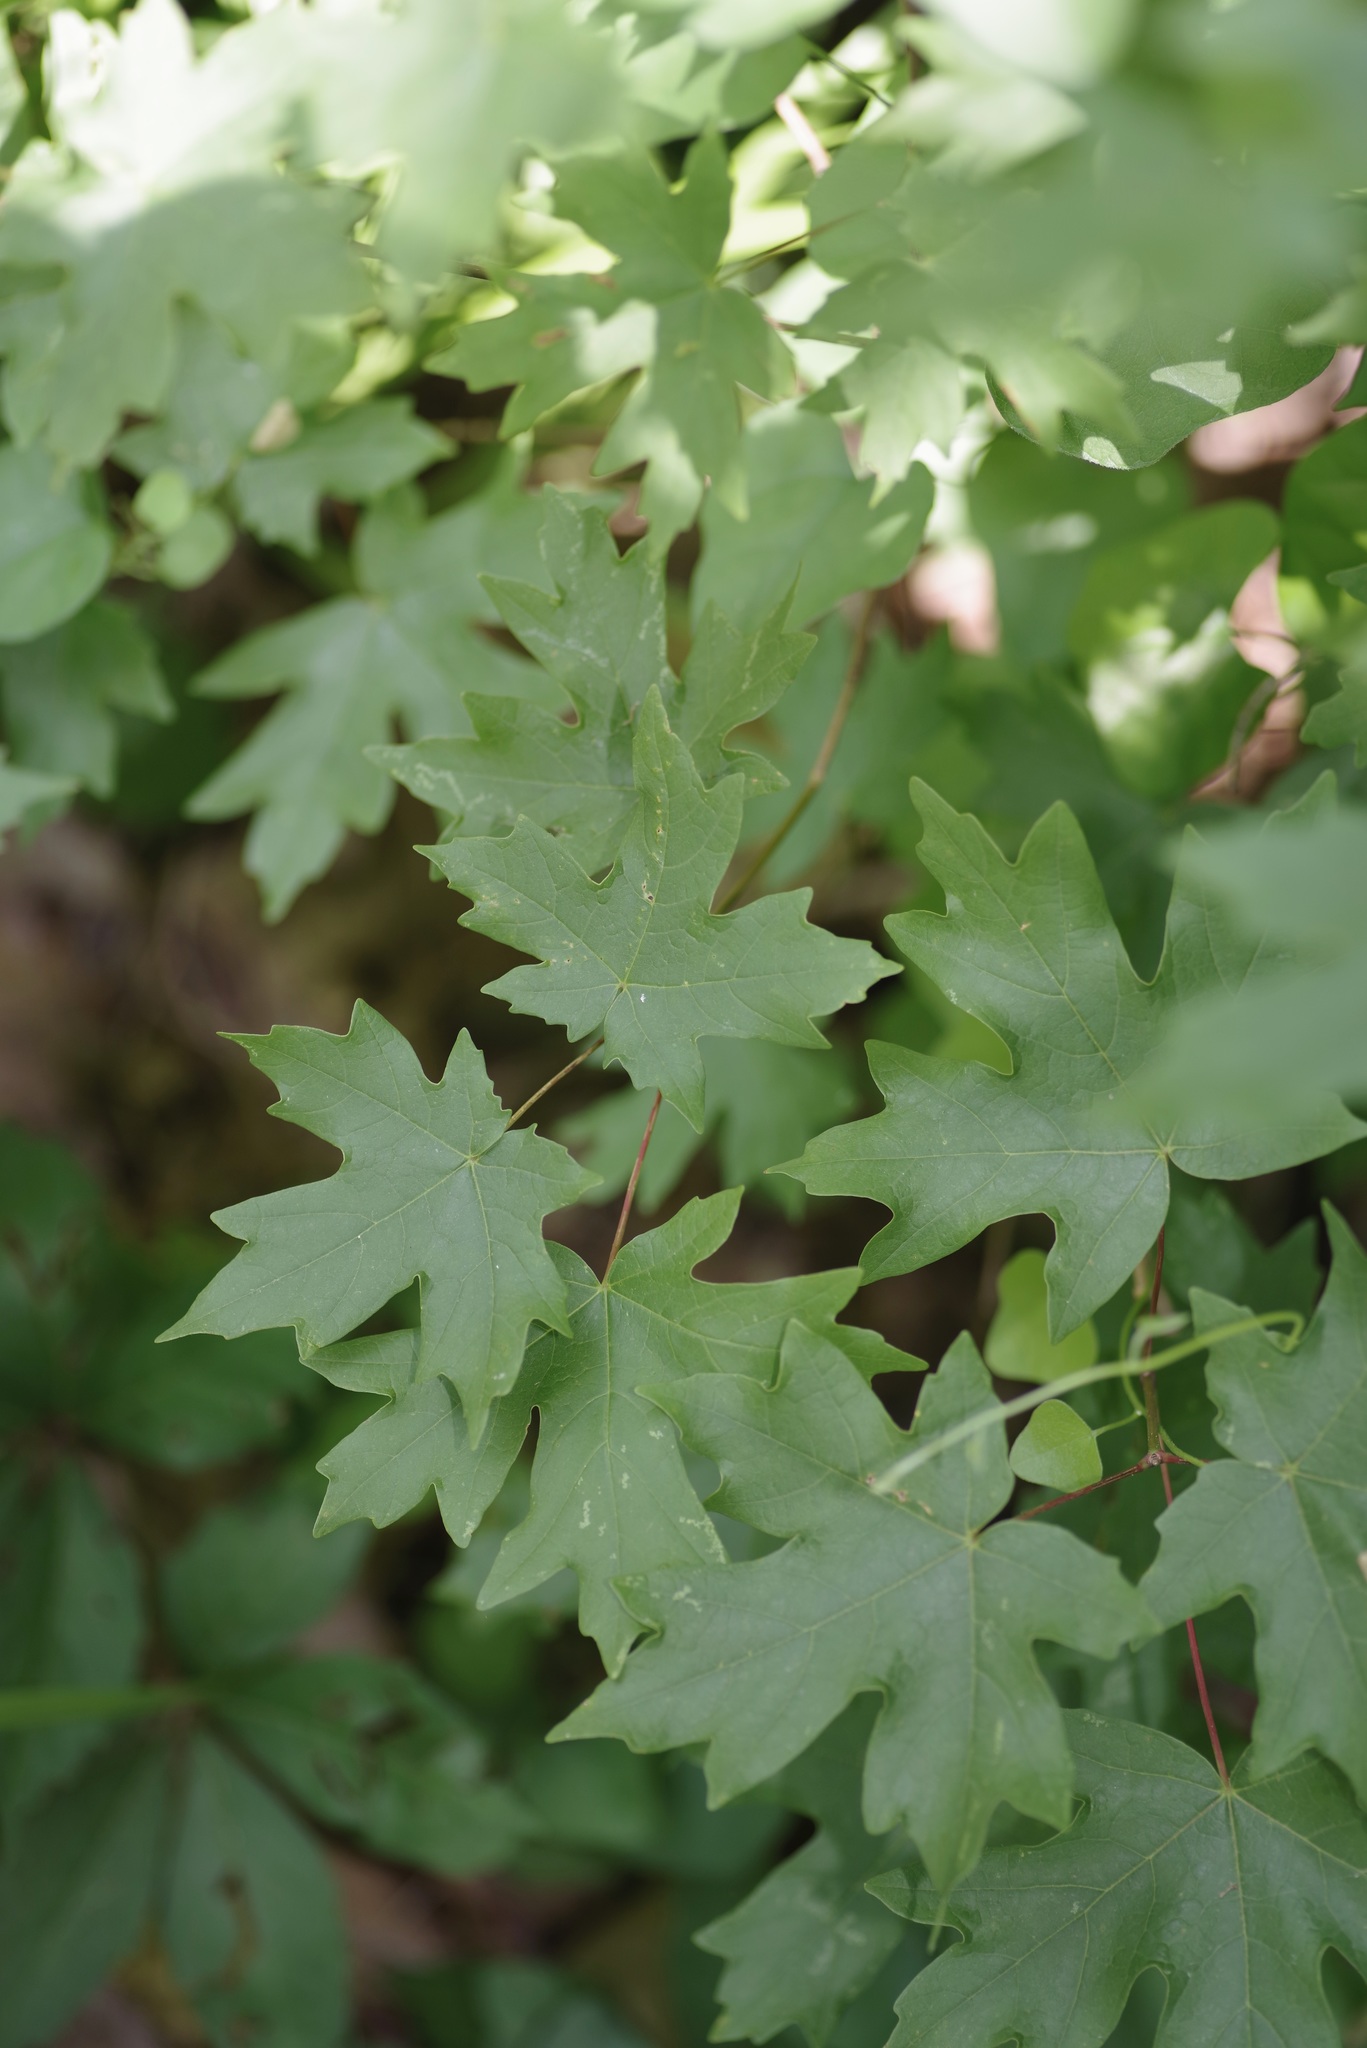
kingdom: Plantae
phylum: Tracheophyta
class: Magnoliopsida
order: Sapindales
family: Sapindaceae
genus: Acer
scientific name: Acer grandidentatum
